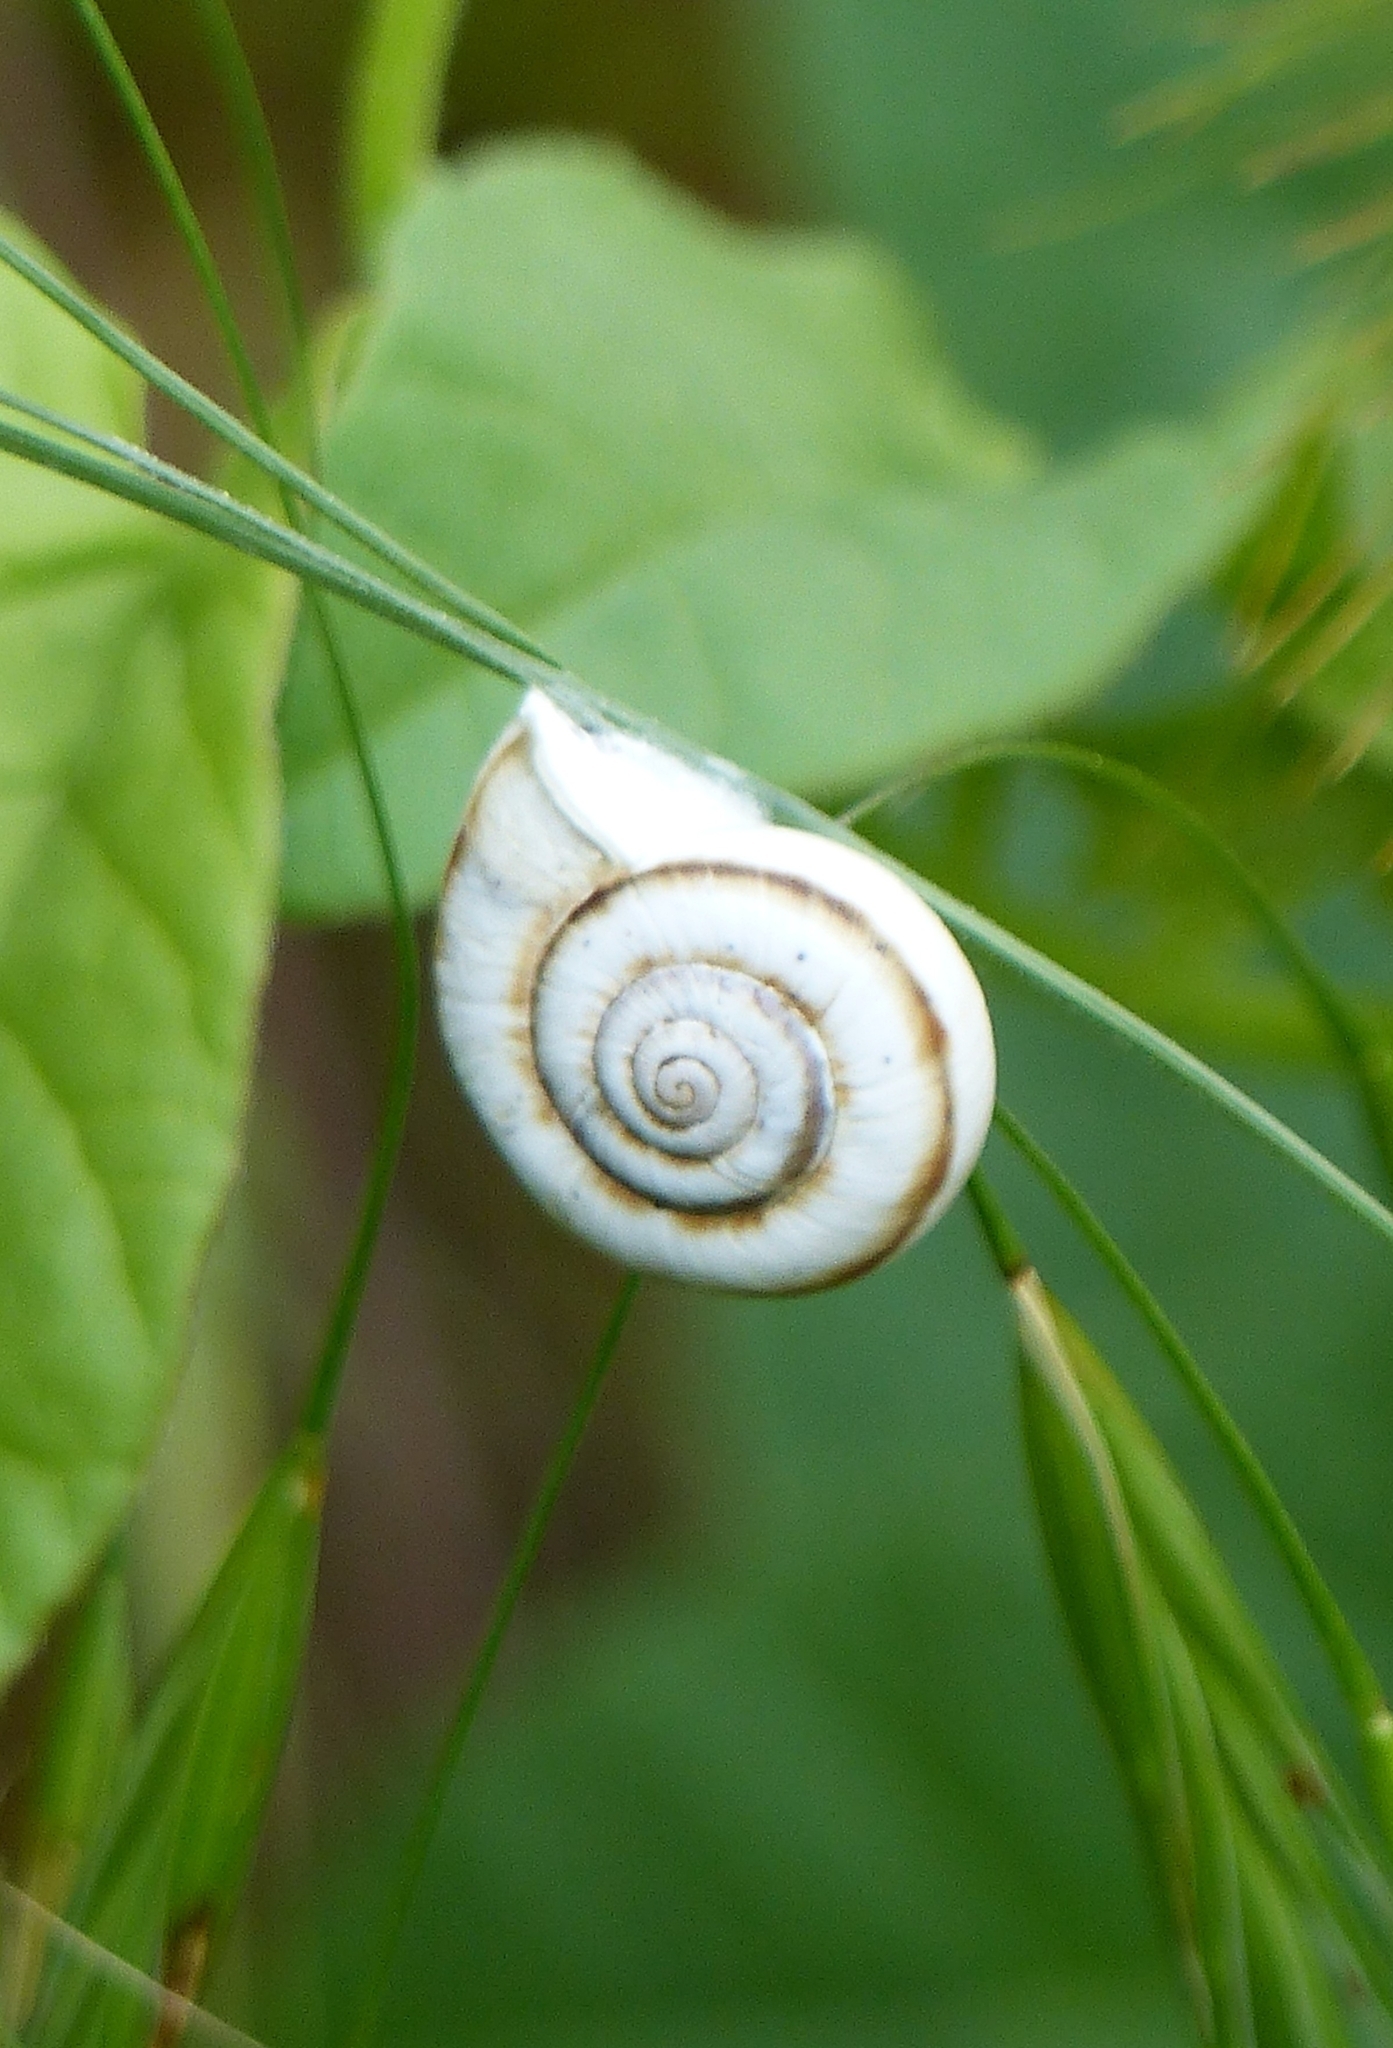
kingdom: Animalia
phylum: Mollusca
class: Gastropoda
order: Stylommatophora
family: Geomitridae
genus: Xeropicta
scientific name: Xeropicta derbentina
